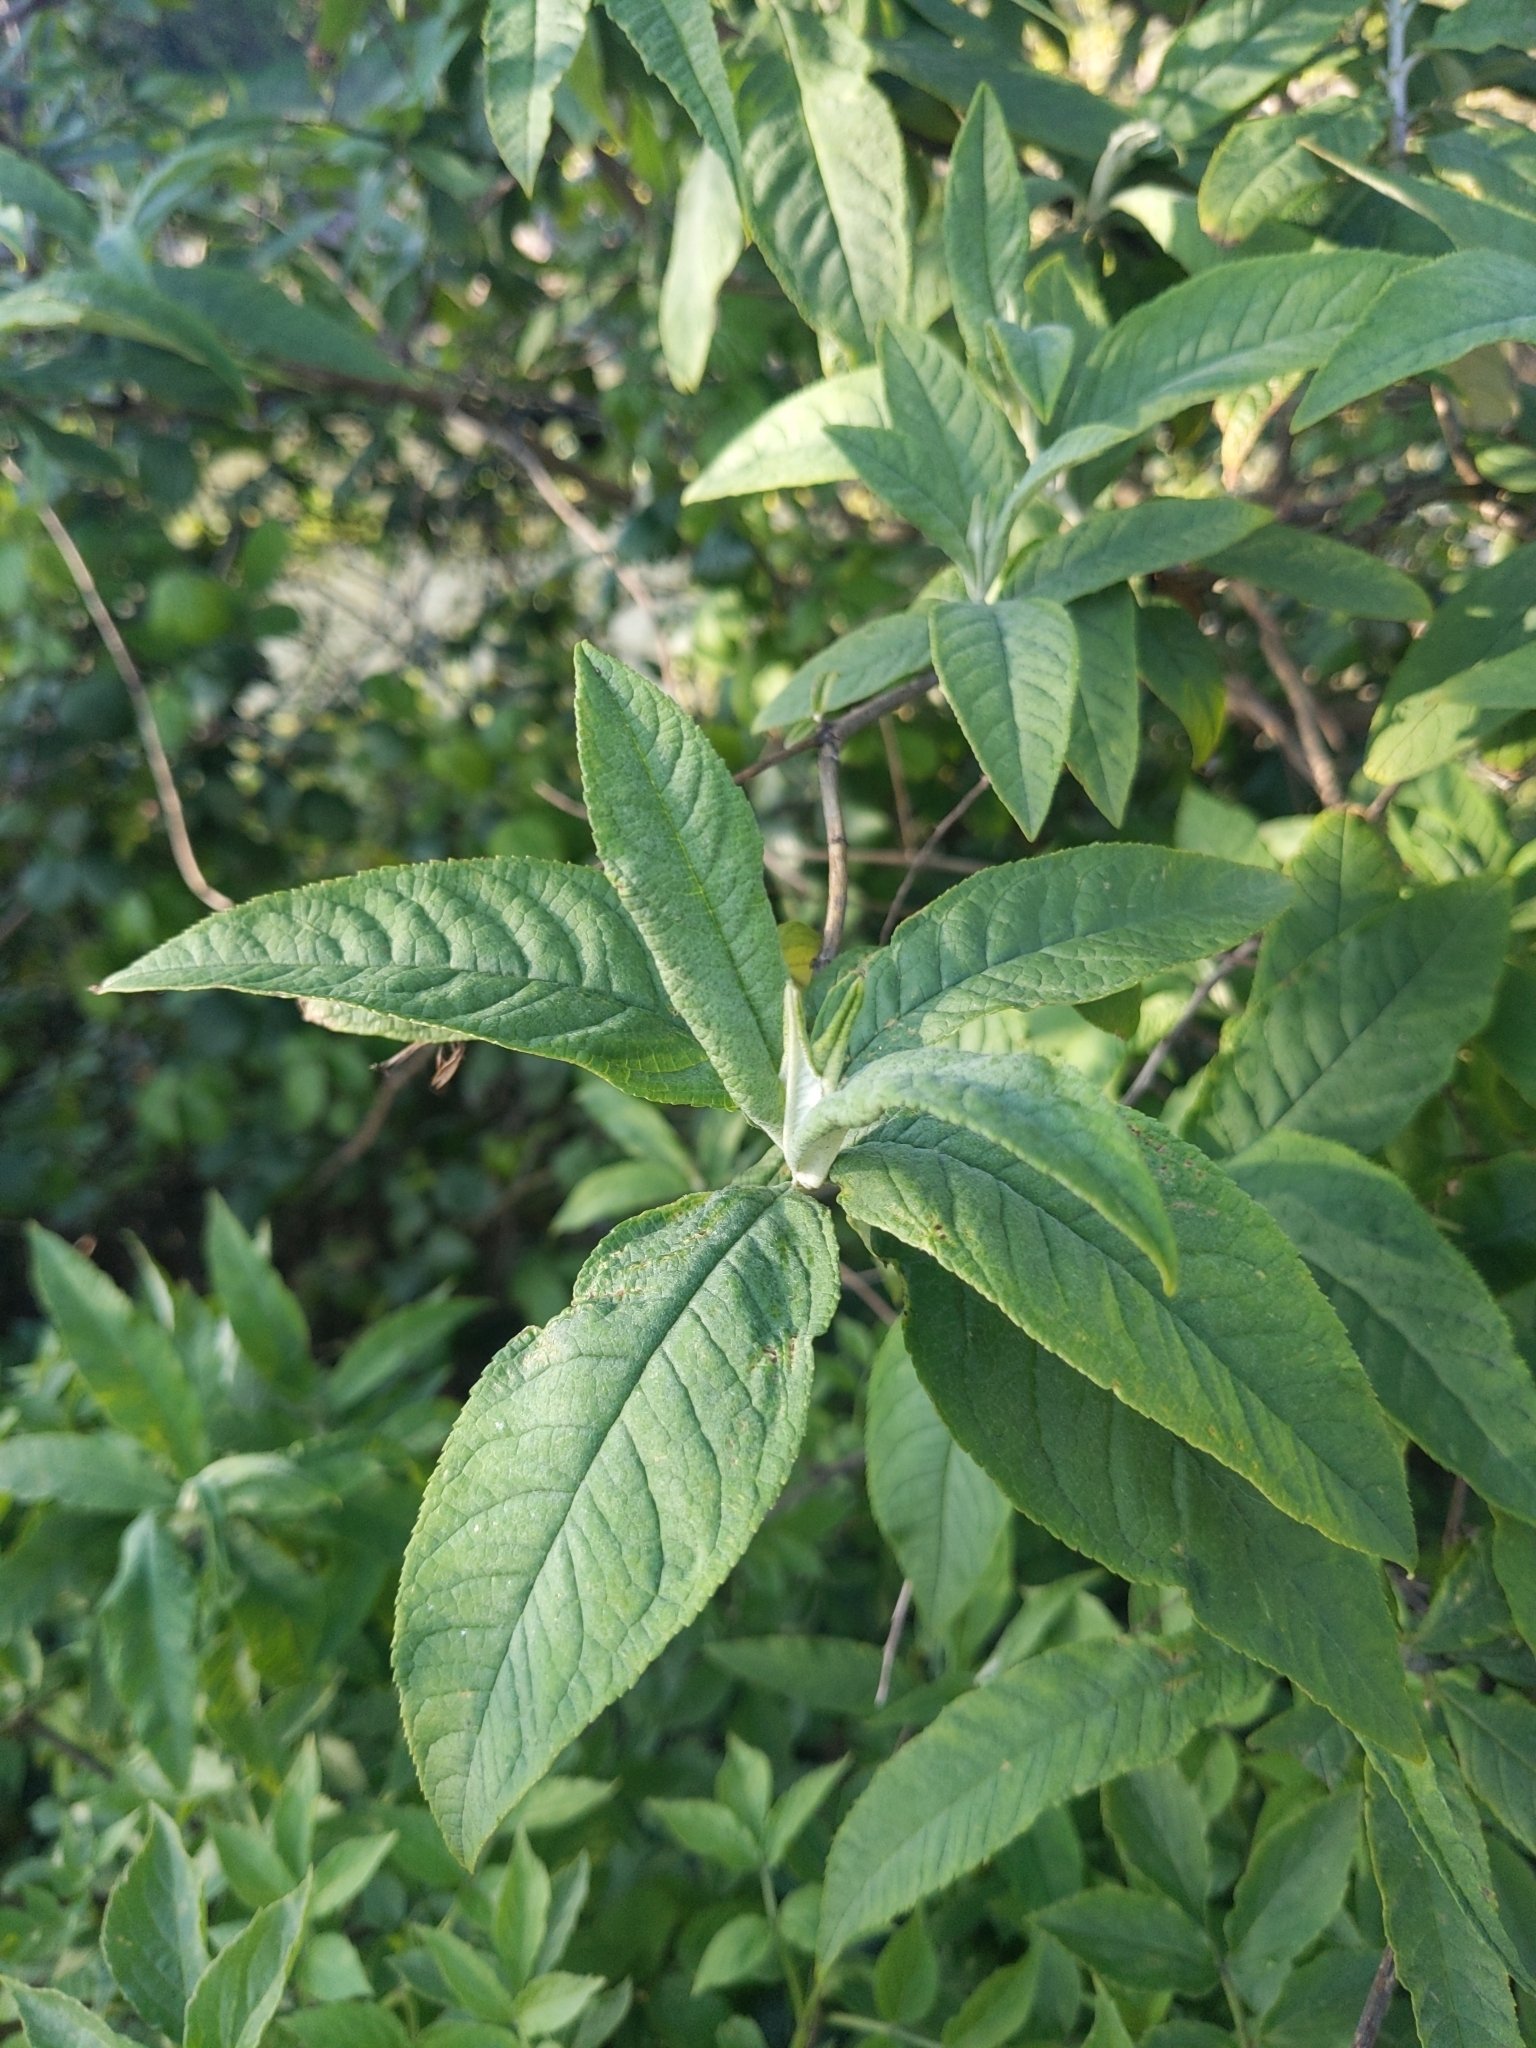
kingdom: Plantae
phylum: Tracheophyta
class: Magnoliopsida
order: Lamiales
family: Scrophulariaceae
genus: Buddleja
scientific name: Buddleja davidii
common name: Butterfly-bush
